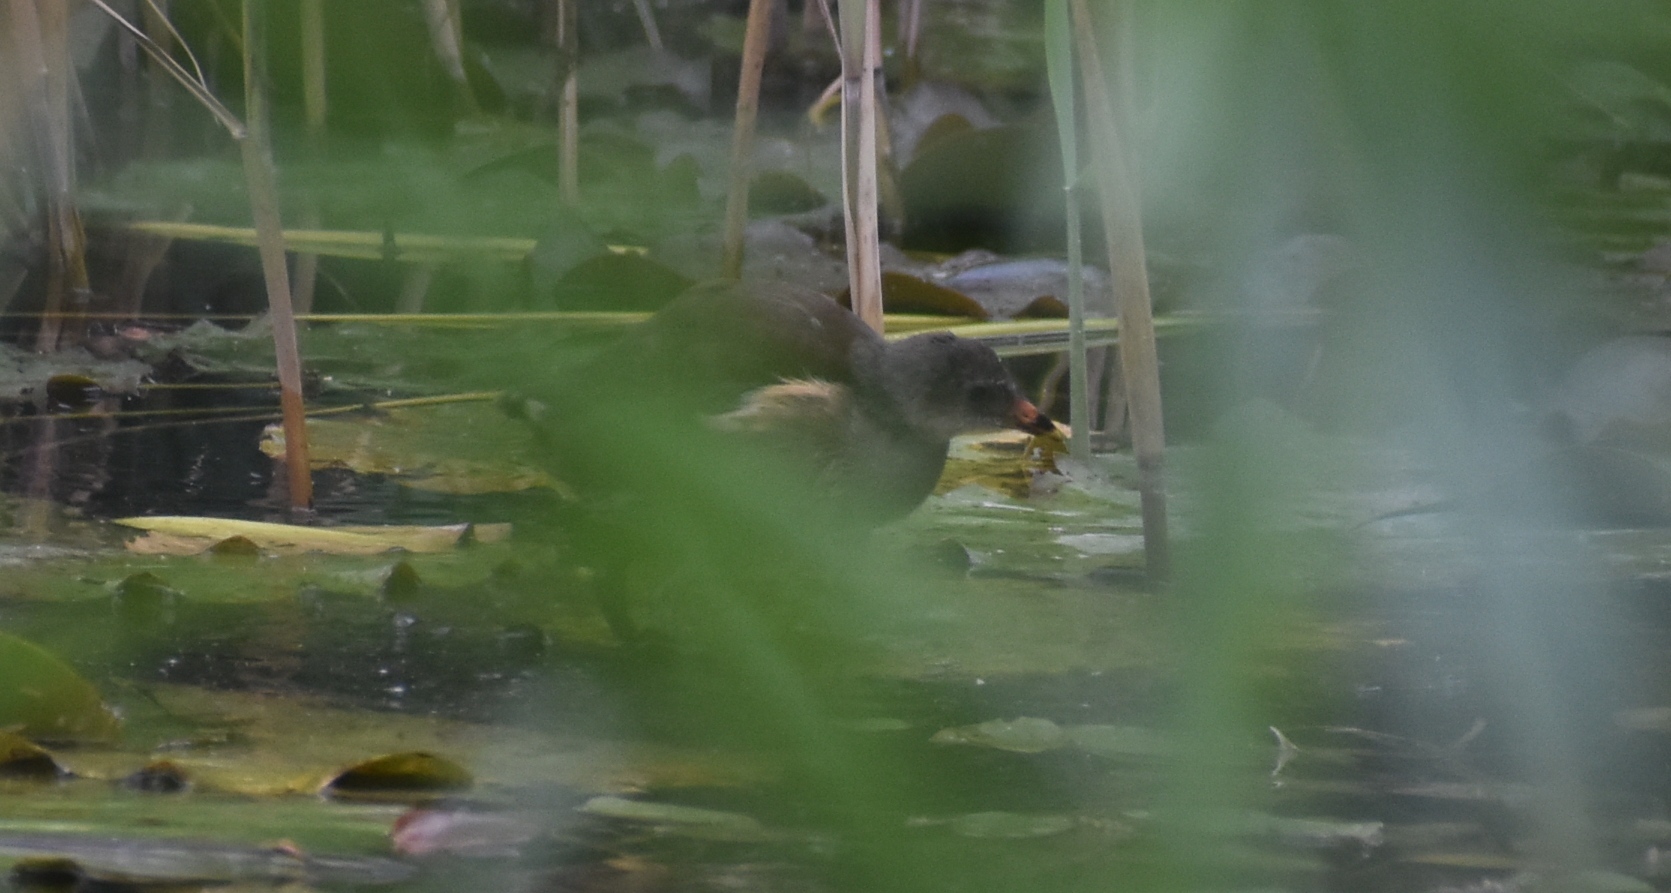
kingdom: Animalia
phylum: Chordata
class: Aves
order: Gruiformes
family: Rallidae
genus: Gallinula
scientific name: Gallinula chloropus
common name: Common moorhen
